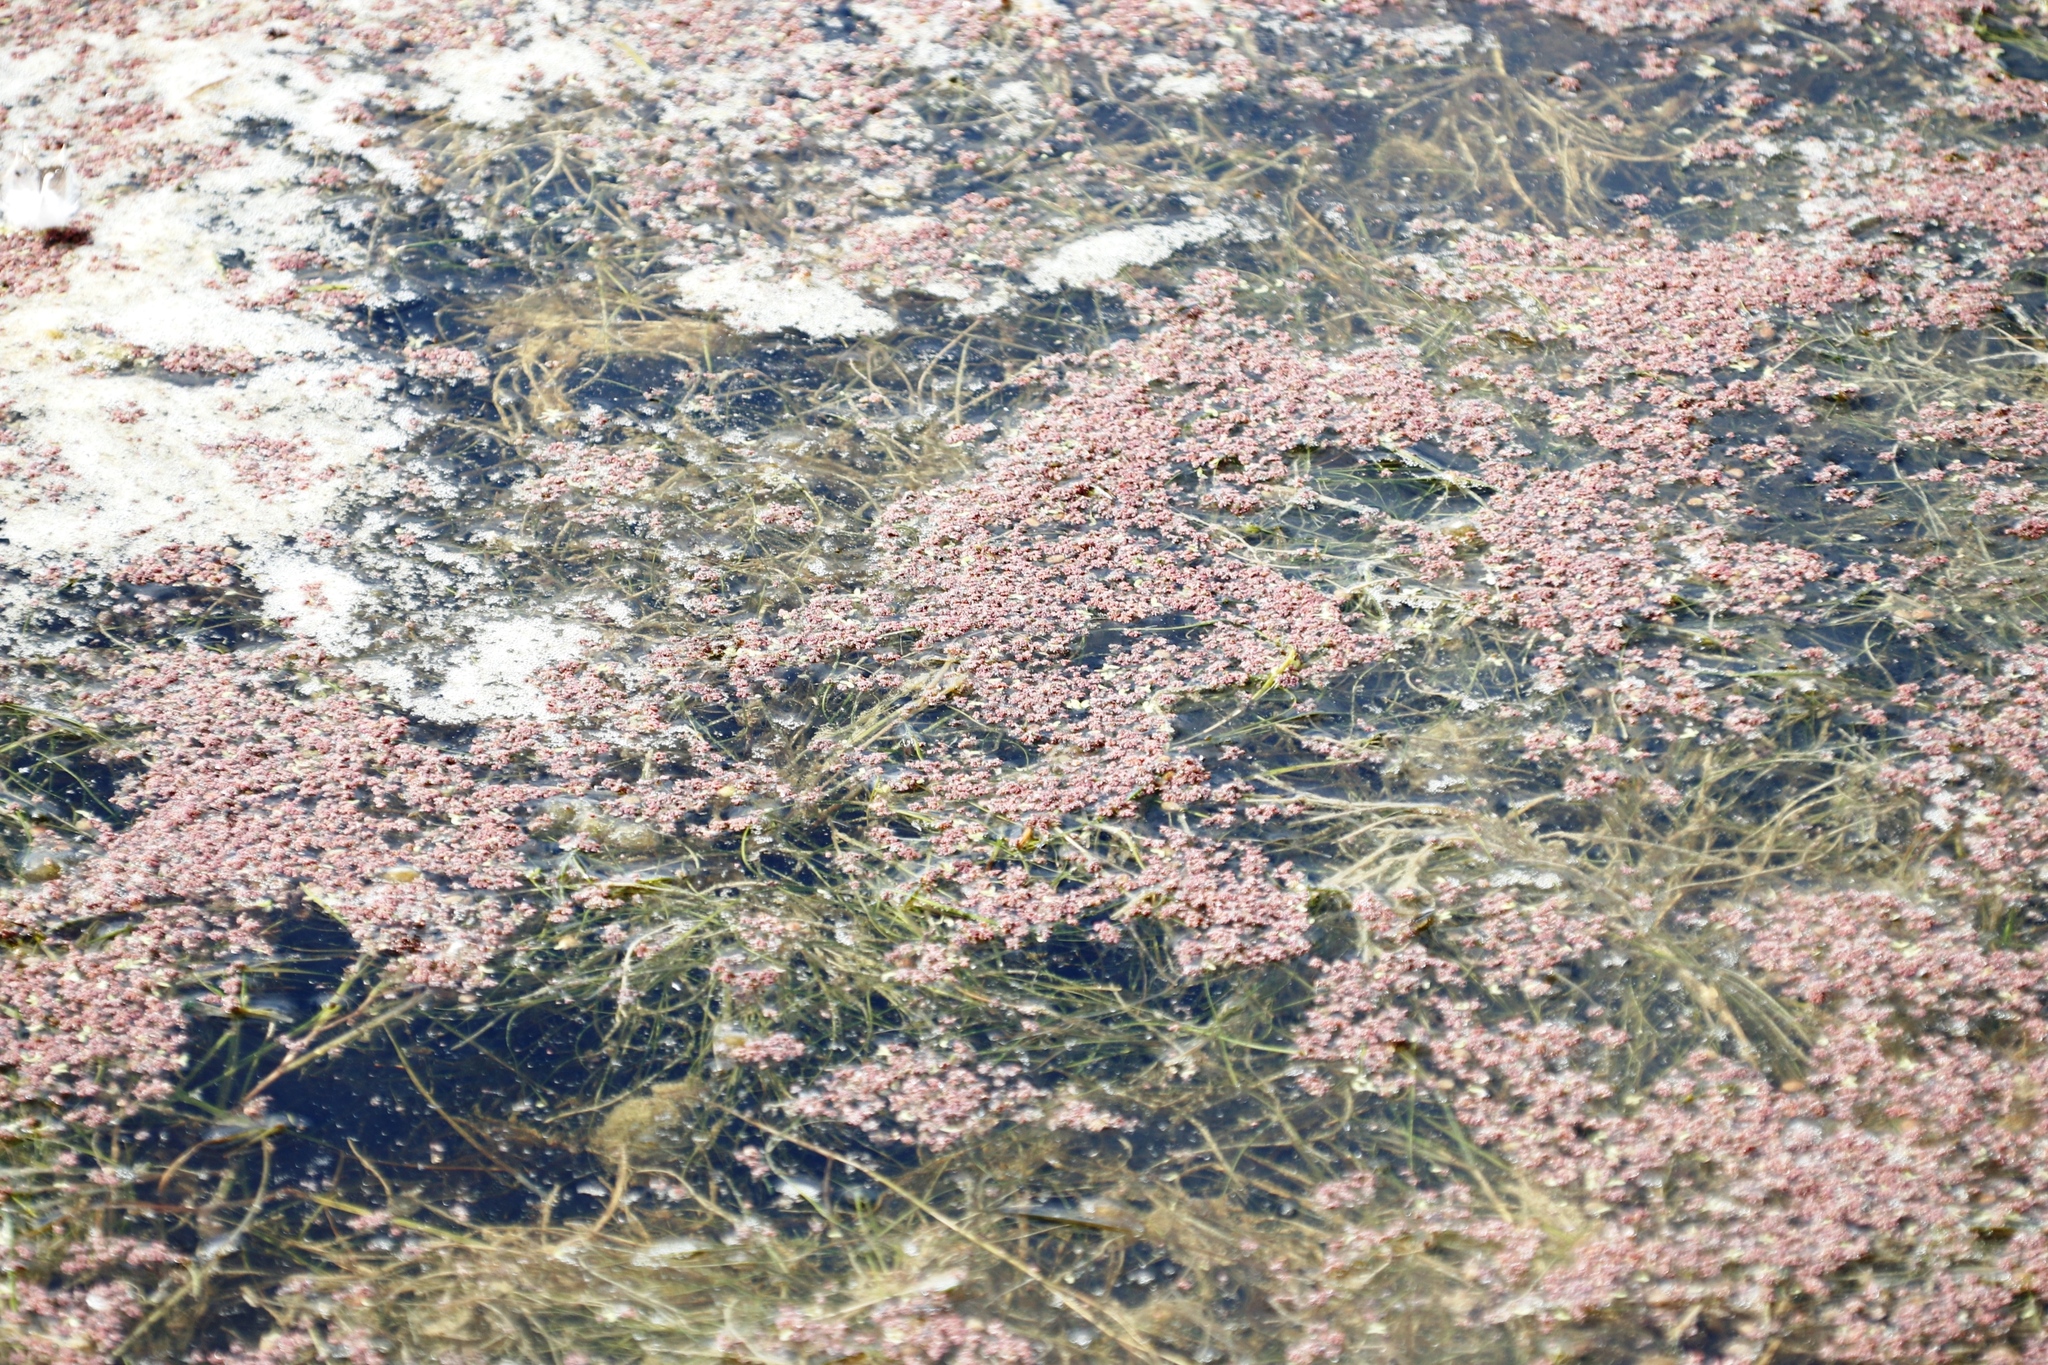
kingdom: Plantae
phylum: Tracheophyta
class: Polypodiopsida
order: Salviniales
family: Salviniaceae
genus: Azolla
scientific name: Azolla filiculoides
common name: Water fern
